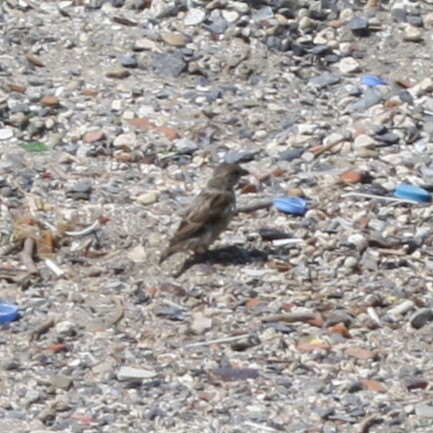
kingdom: Animalia
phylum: Chordata
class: Aves
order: Passeriformes
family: Passeridae
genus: Passer
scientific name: Passer domesticus
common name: House sparrow
